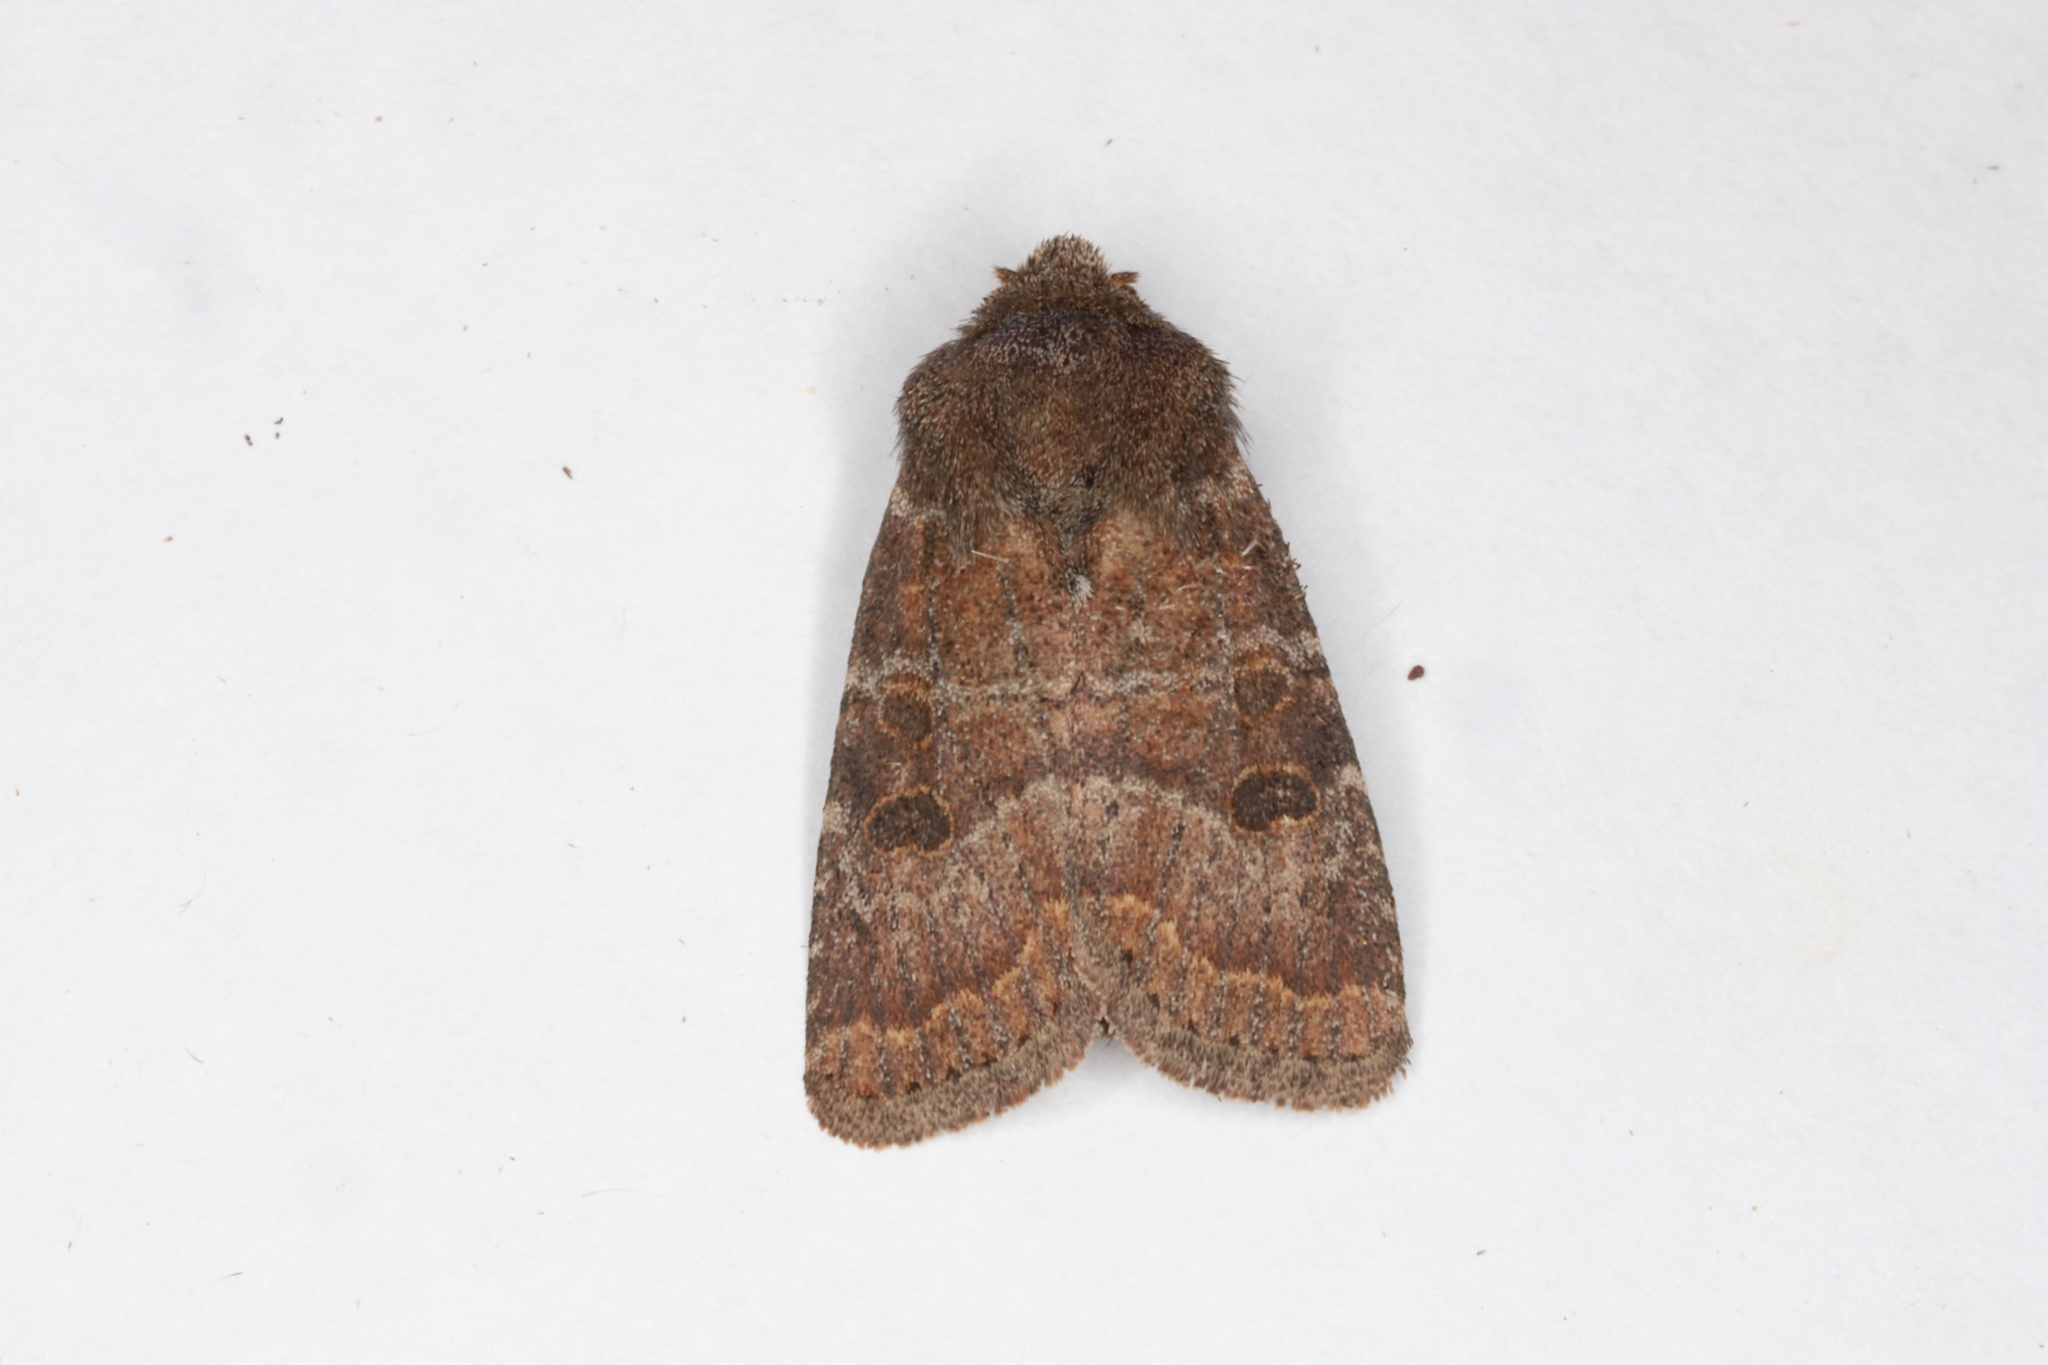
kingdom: Animalia
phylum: Arthropoda
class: Insecta
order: Lepidoptera
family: Noctuidae
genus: Trichopolia
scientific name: Trichopolia
